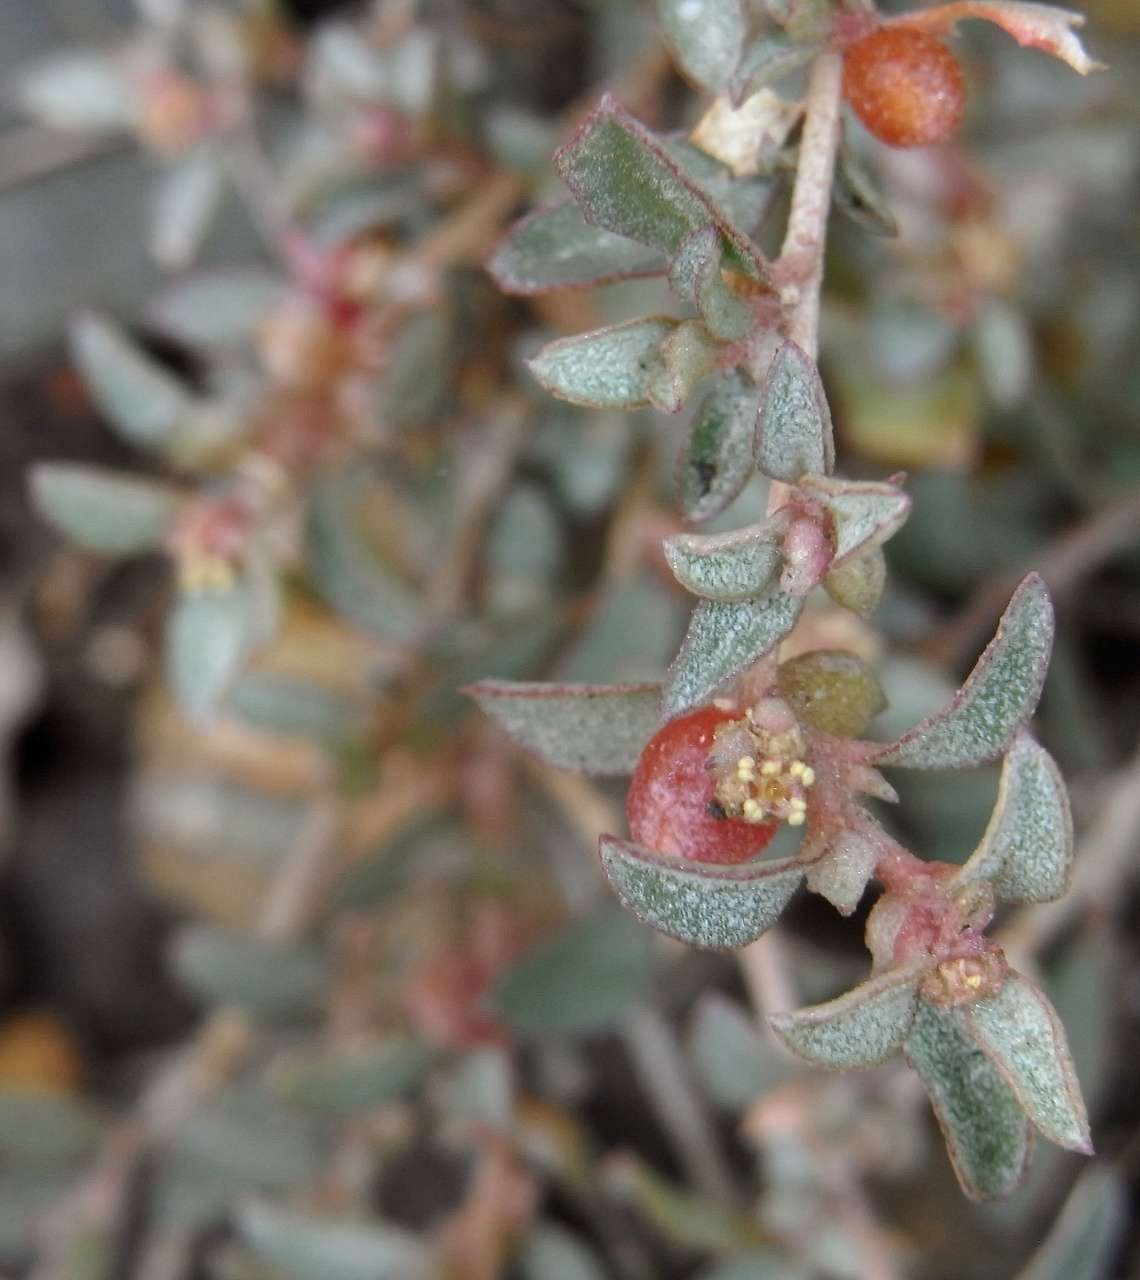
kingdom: Plantae
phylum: Tracheophyta
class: Magnoliopsida
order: Caryophyllales
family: Amaranthaceae
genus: Atriplex
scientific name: Atriplex semibaccata
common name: Australian saltbush
